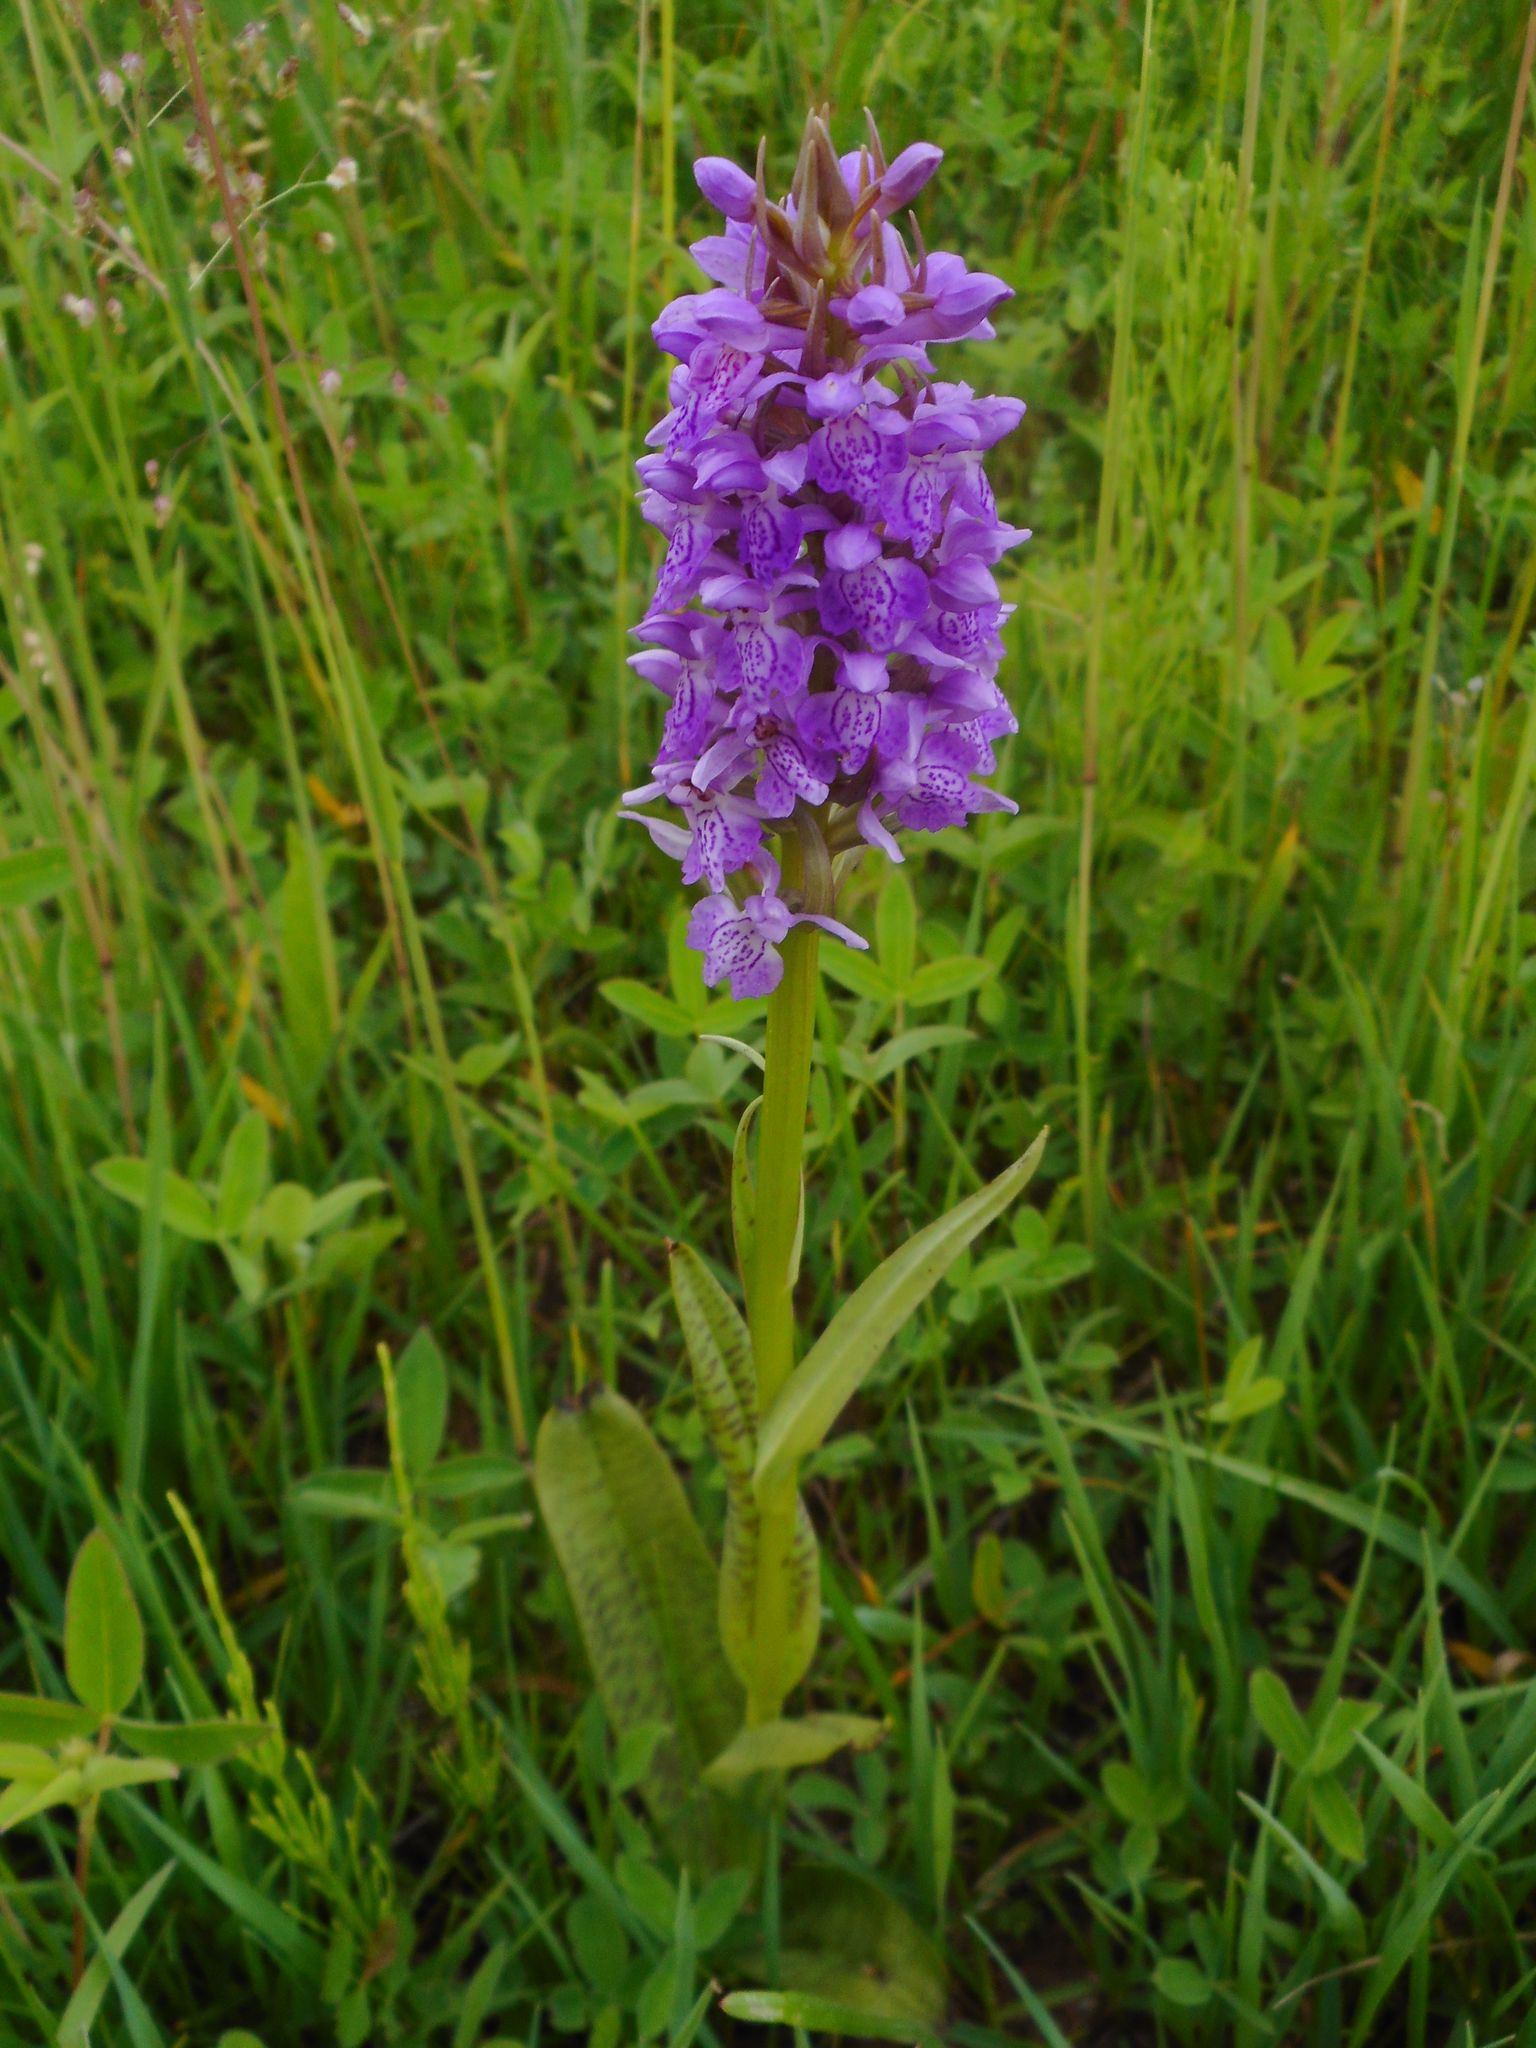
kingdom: Plantae
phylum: Tracheophyta
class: Liliopsida
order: Asparagales
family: Orchidaceae
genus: Dactylorhiza
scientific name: Dactylorhiza majalis
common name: Marsh orchid
